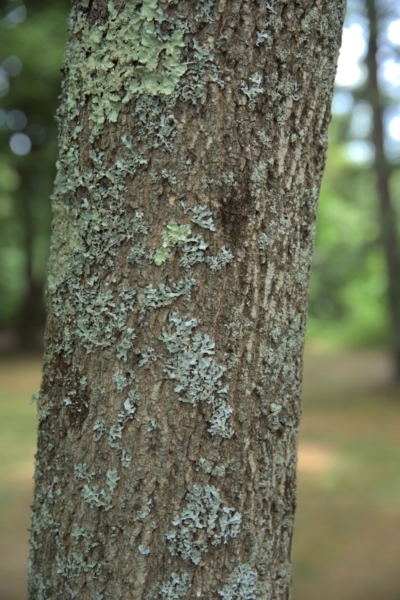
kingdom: Plantae
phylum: Tracheophyta
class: Magnoliopsida
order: Lamiales
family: Oleaceae
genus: Fraxinus
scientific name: Fraxinus americana
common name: White ash
